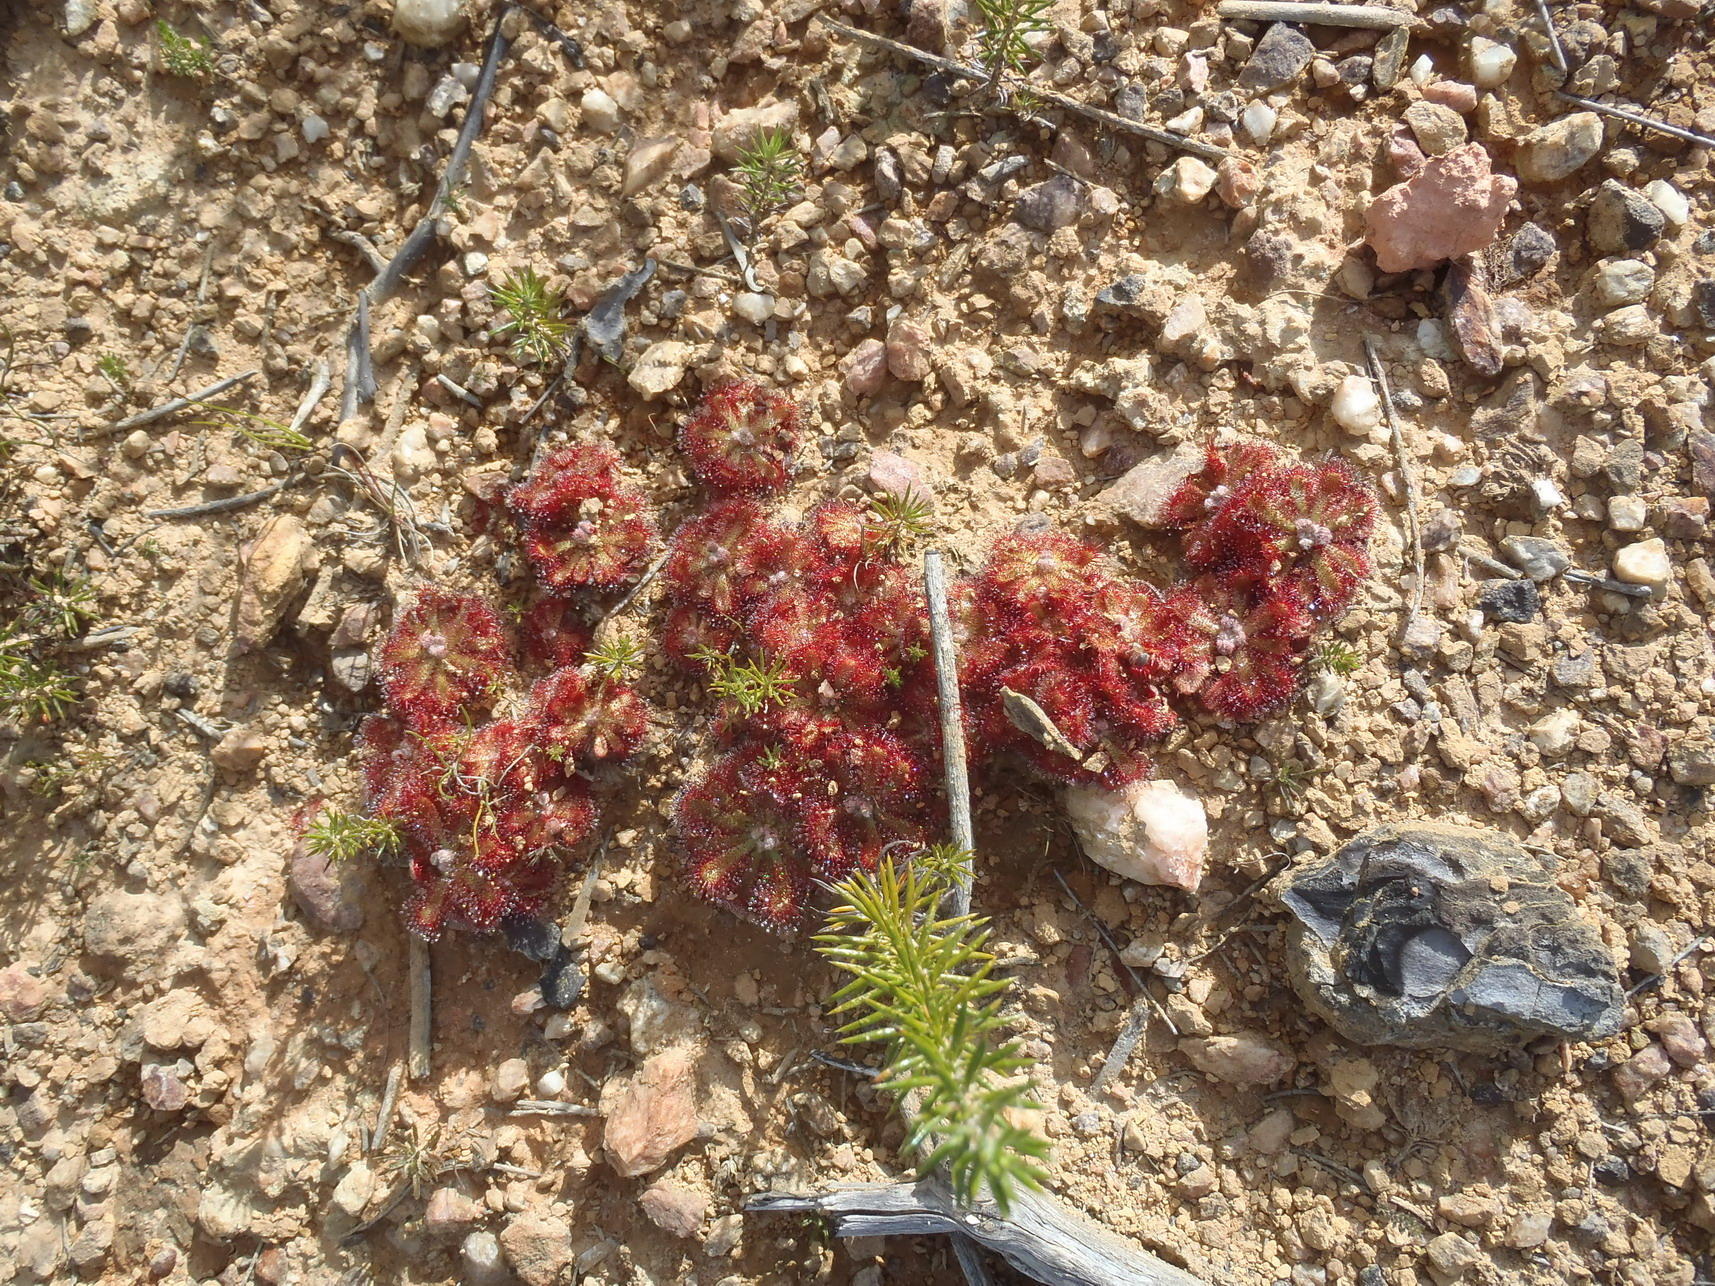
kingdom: Plantae
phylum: Tracheophyta
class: Magnoliopsida
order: Caryophyllales
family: Droseraceae
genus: Drosera
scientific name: Drosera aliciae
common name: Alice sundew
